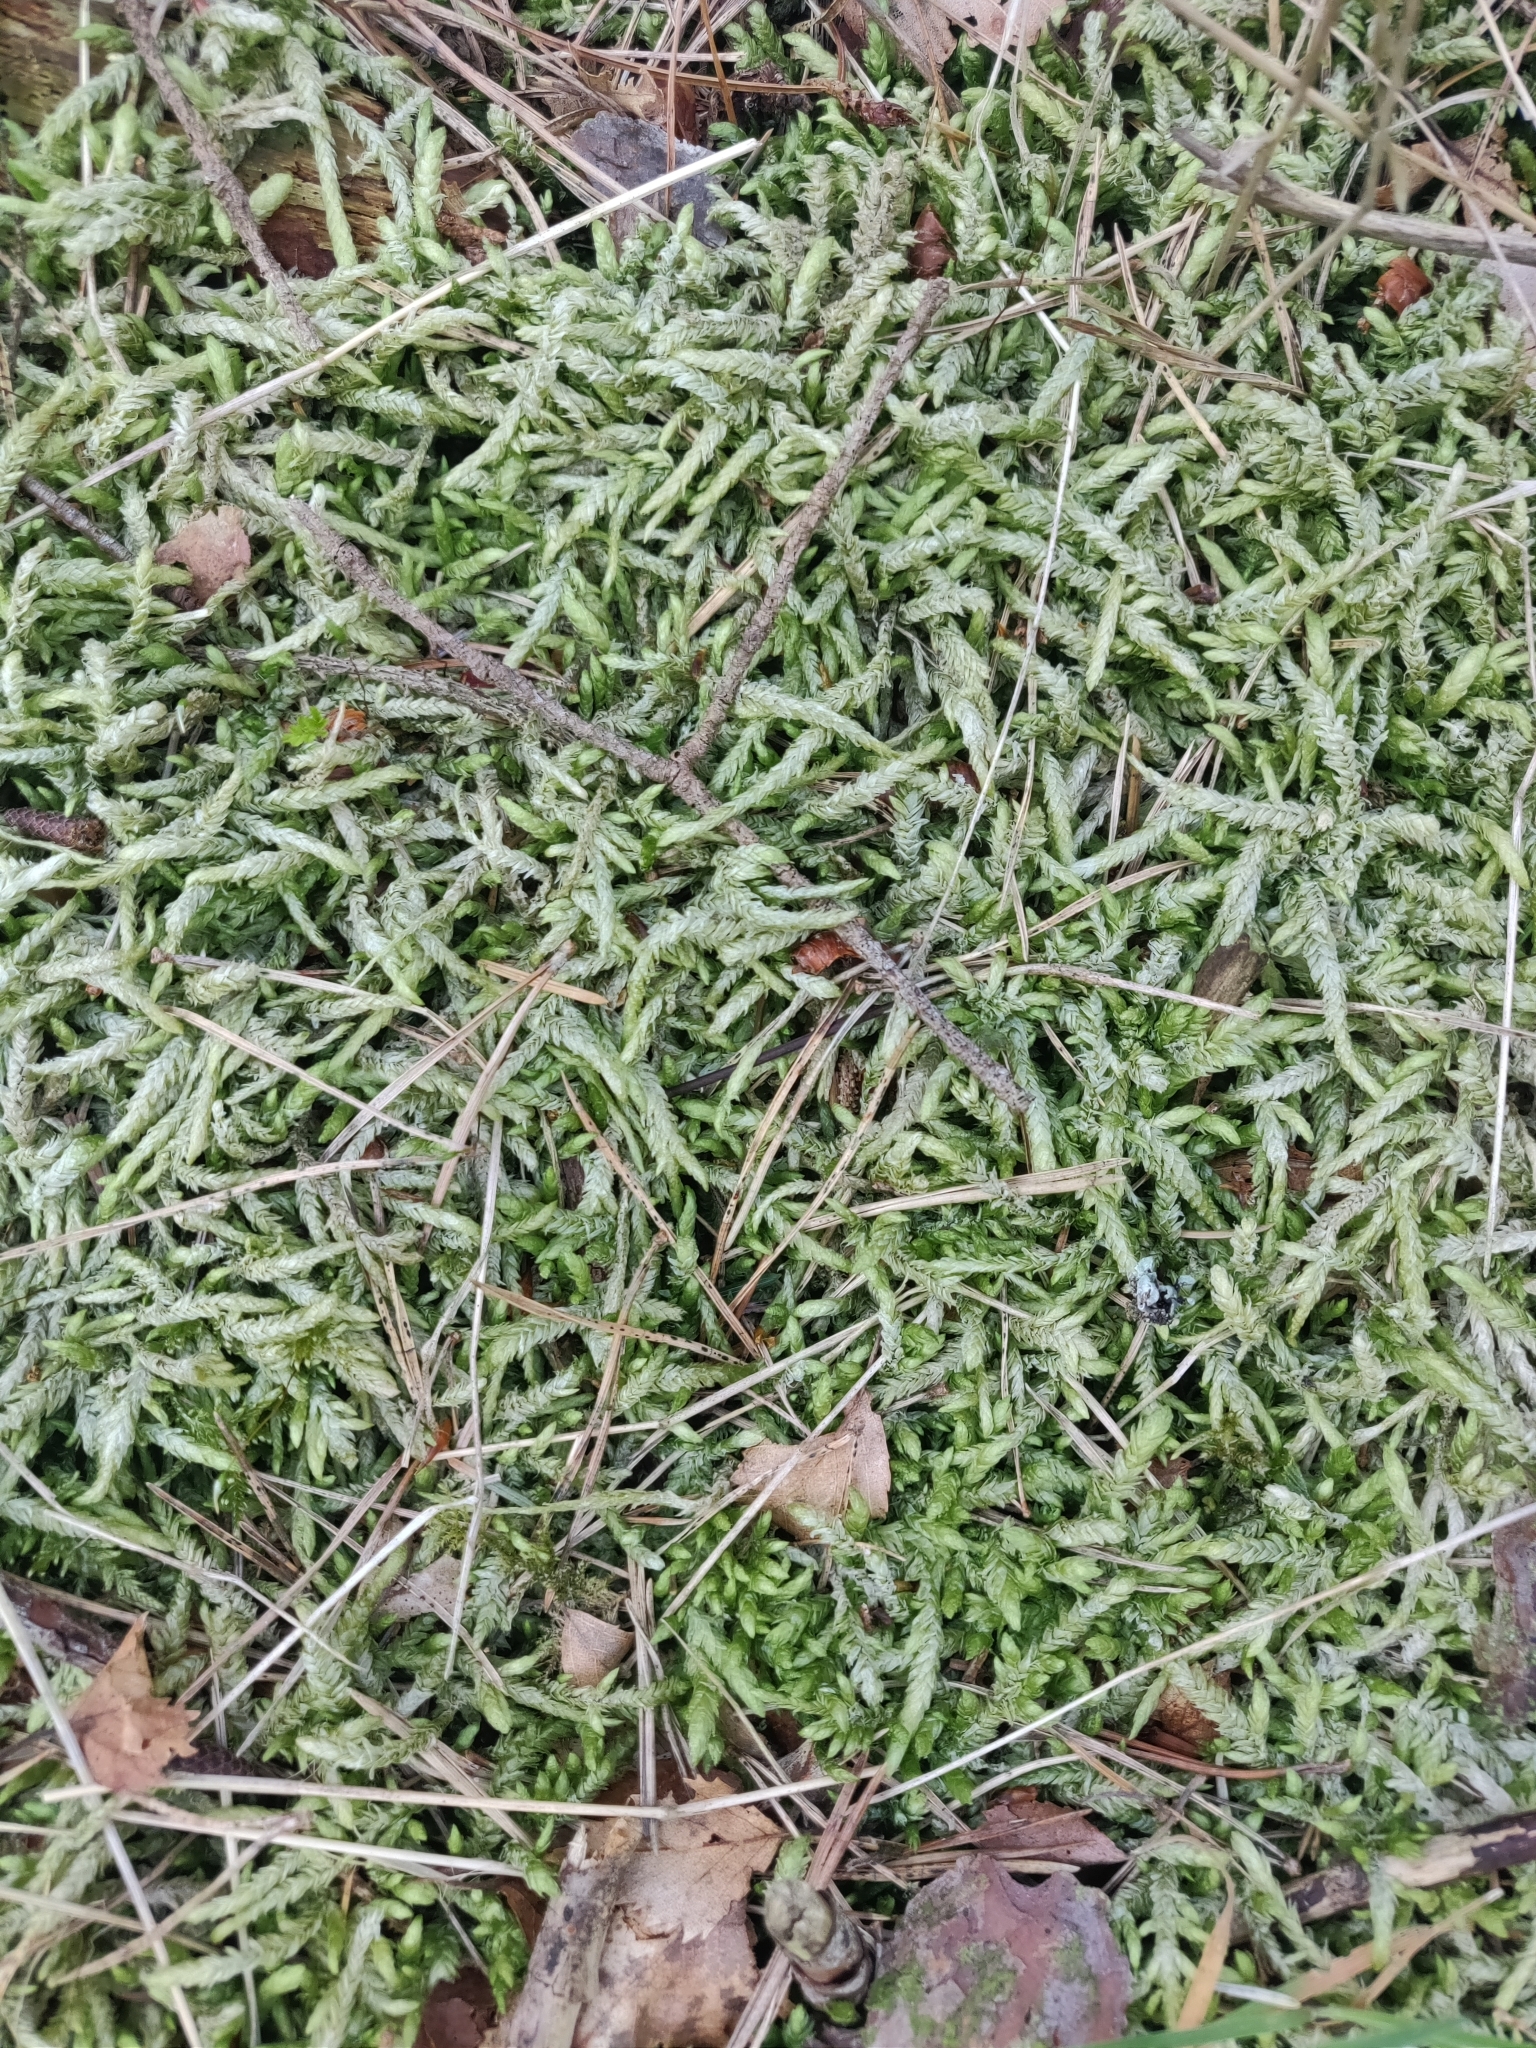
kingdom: Plantae
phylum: Bryophyta
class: Bryopsida
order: Hypnales
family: Plagiotheciaceae
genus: Plagiothecium
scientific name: Plagiothecium undulatum
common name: Waved silk-moss
